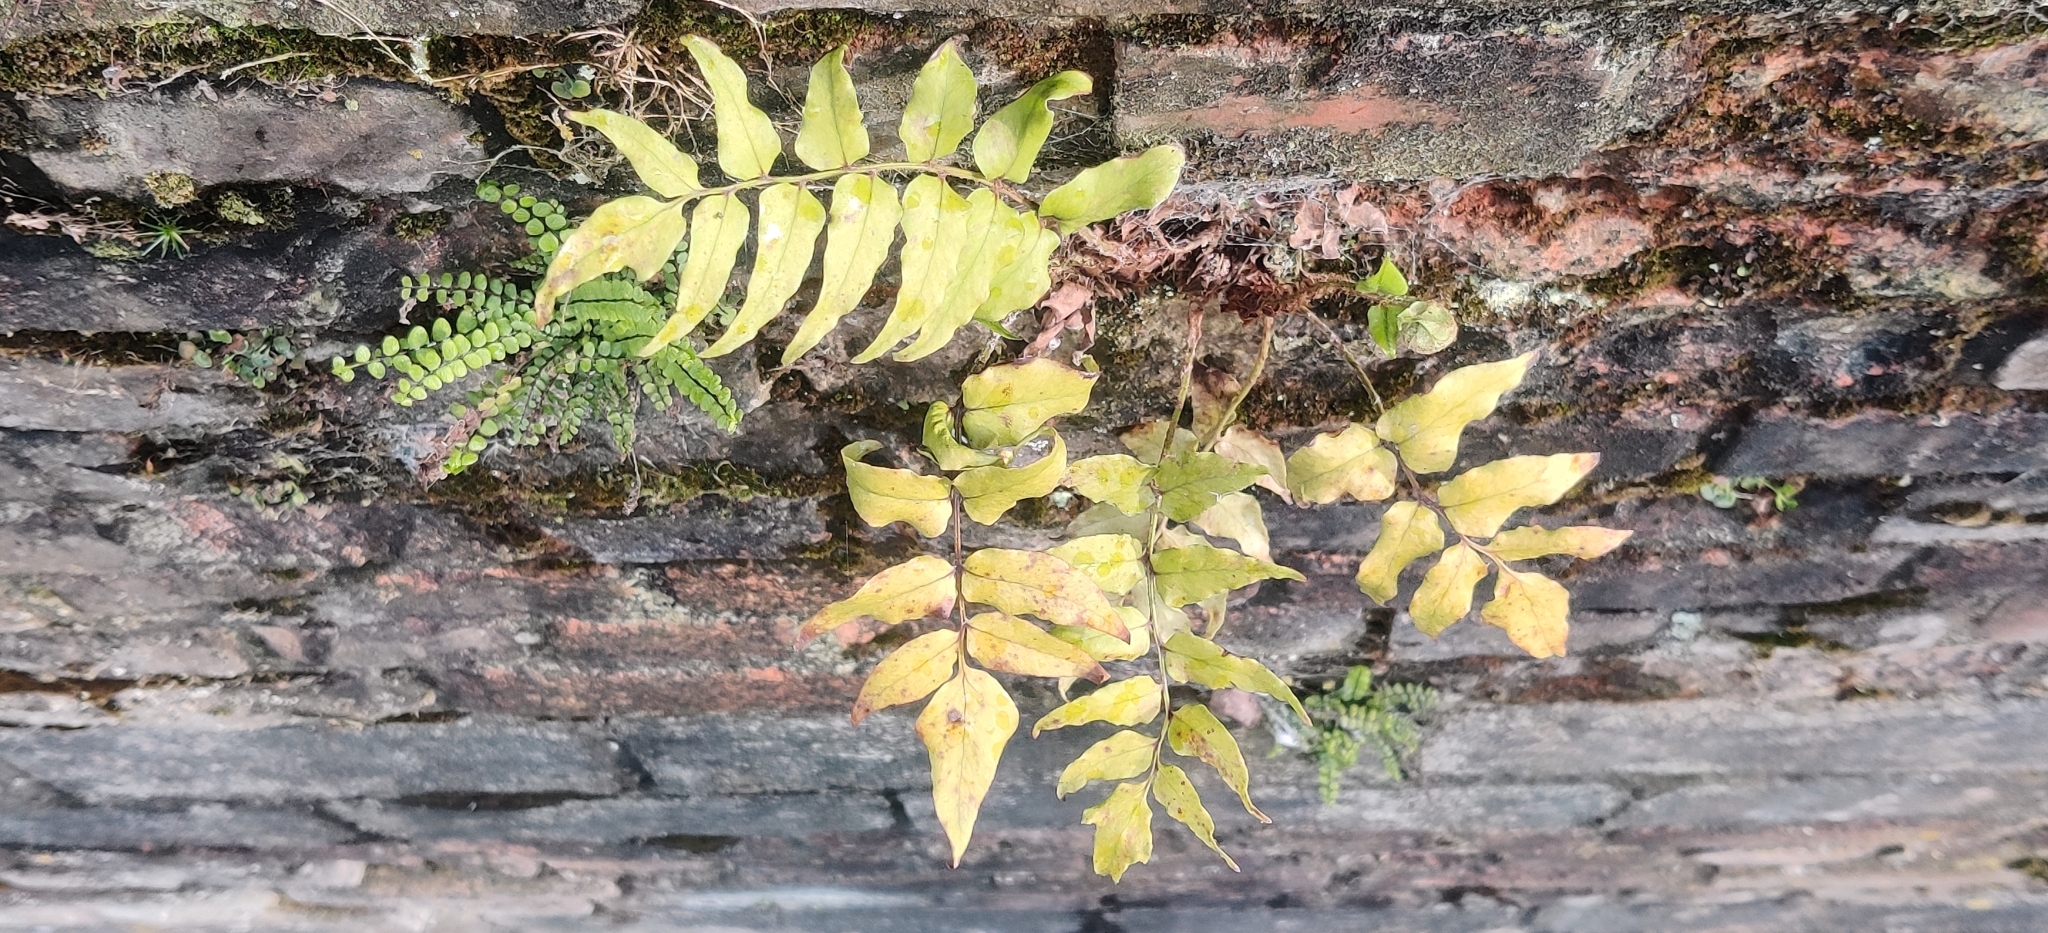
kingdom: Plantae
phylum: Tracheophyta
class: Polypodiopsida
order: Polypodiales
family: Dryopteridaceae
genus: Cyrtomium
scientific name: Cyrtomium fortunei
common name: Asian netvein hollyfern
